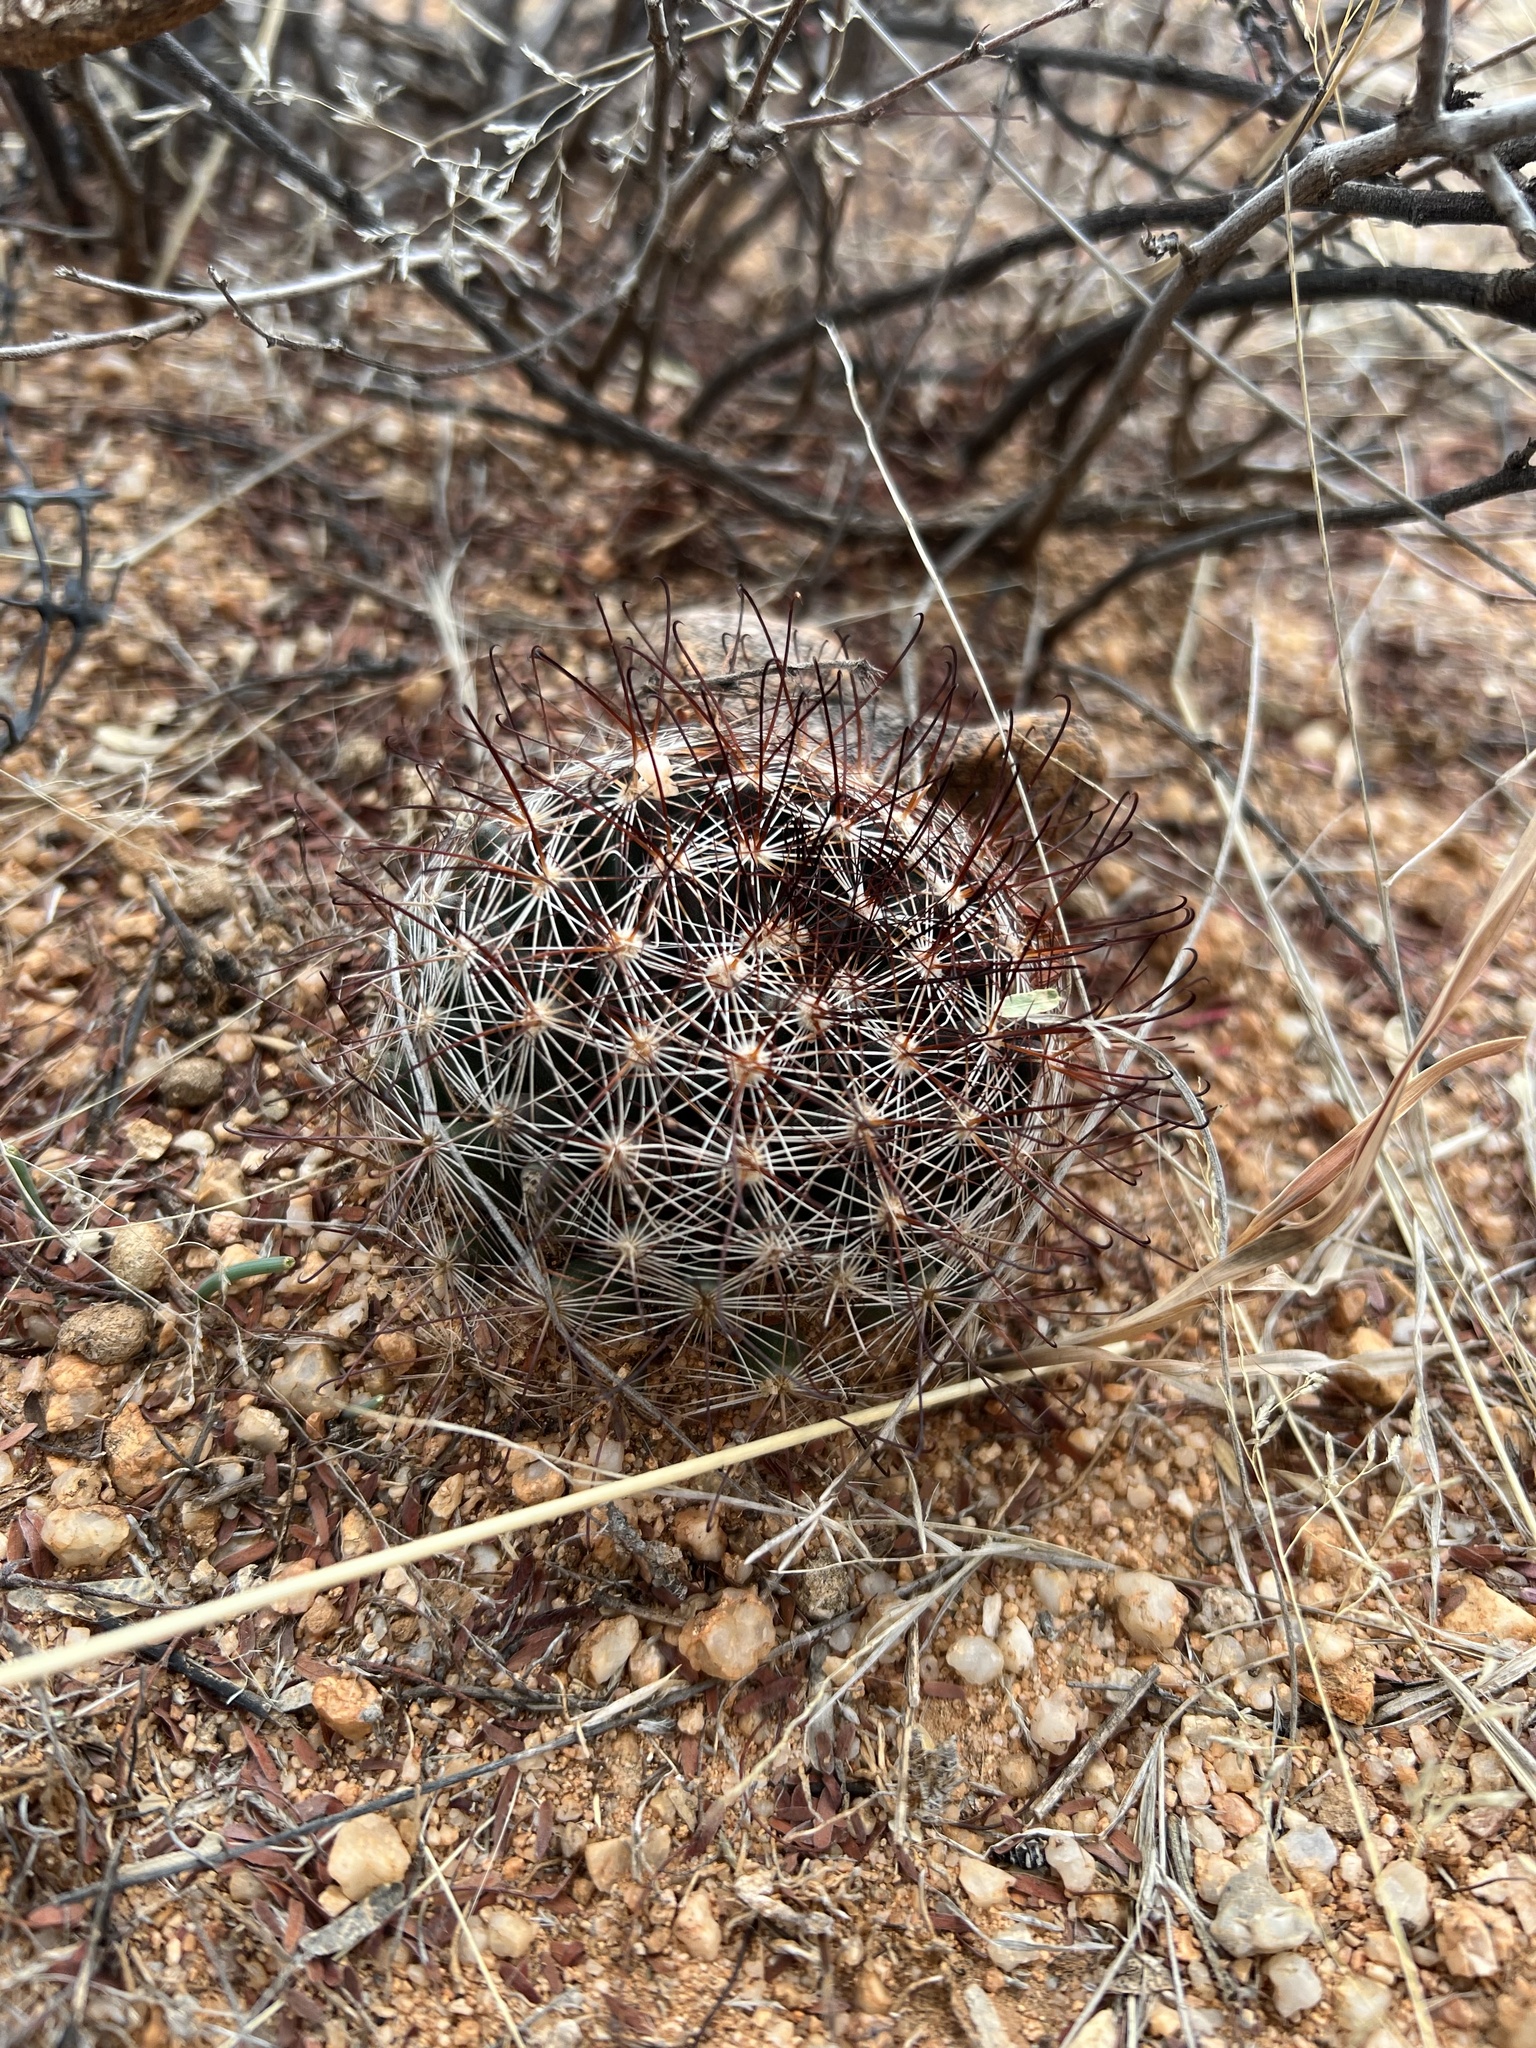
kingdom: Plantae
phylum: Tracheophyta
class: Magnoliopsida
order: Caryophyllales
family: Cactaceae
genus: Cochemiea
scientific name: Cochemiea wrightii
